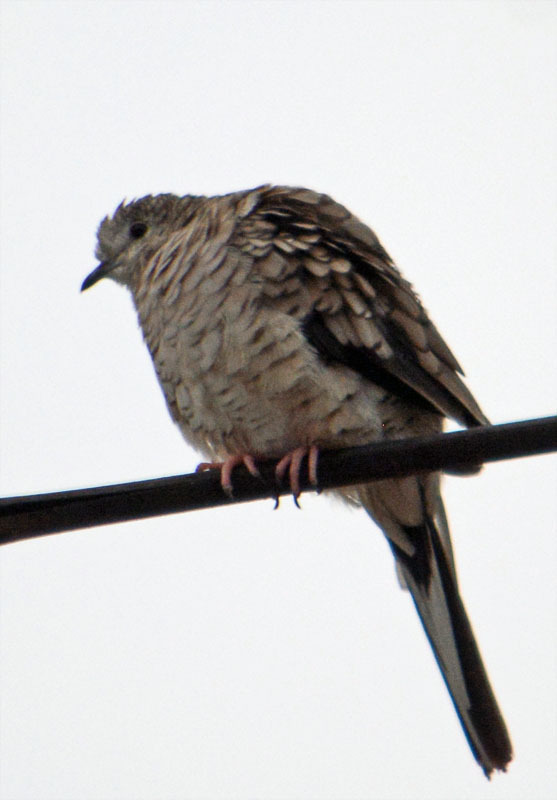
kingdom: Animalia
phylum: Chordata
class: Aves
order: Columbiformes
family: Columbidae
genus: Columbina
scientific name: Columbina inca
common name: Inca dove
